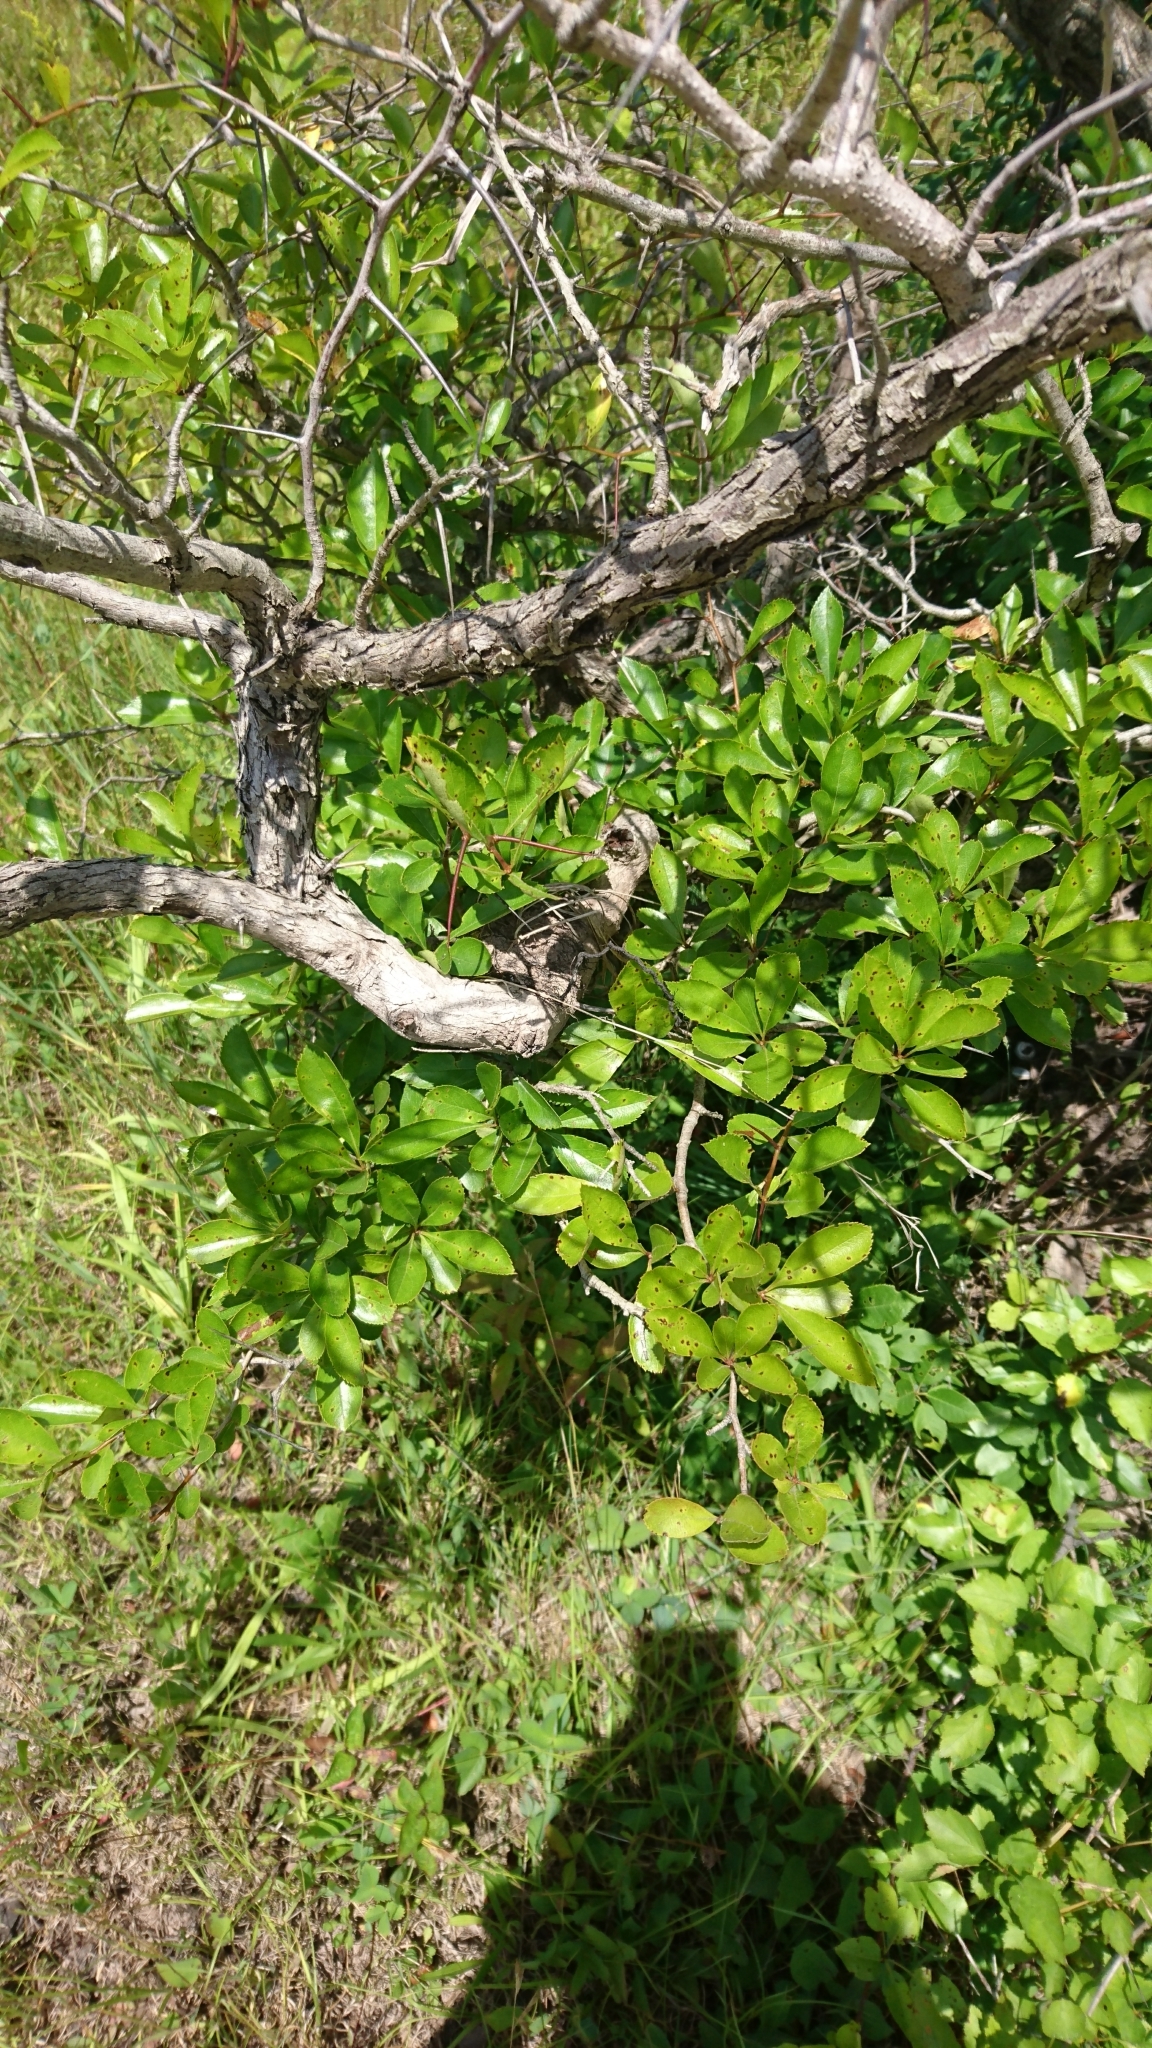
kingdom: Plantae
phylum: Tracheophyta
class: Magnoliopsida
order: Rosales
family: Rosaceae
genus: Crataegus
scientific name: Crataegus crus-galli
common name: Cockspurthorn
